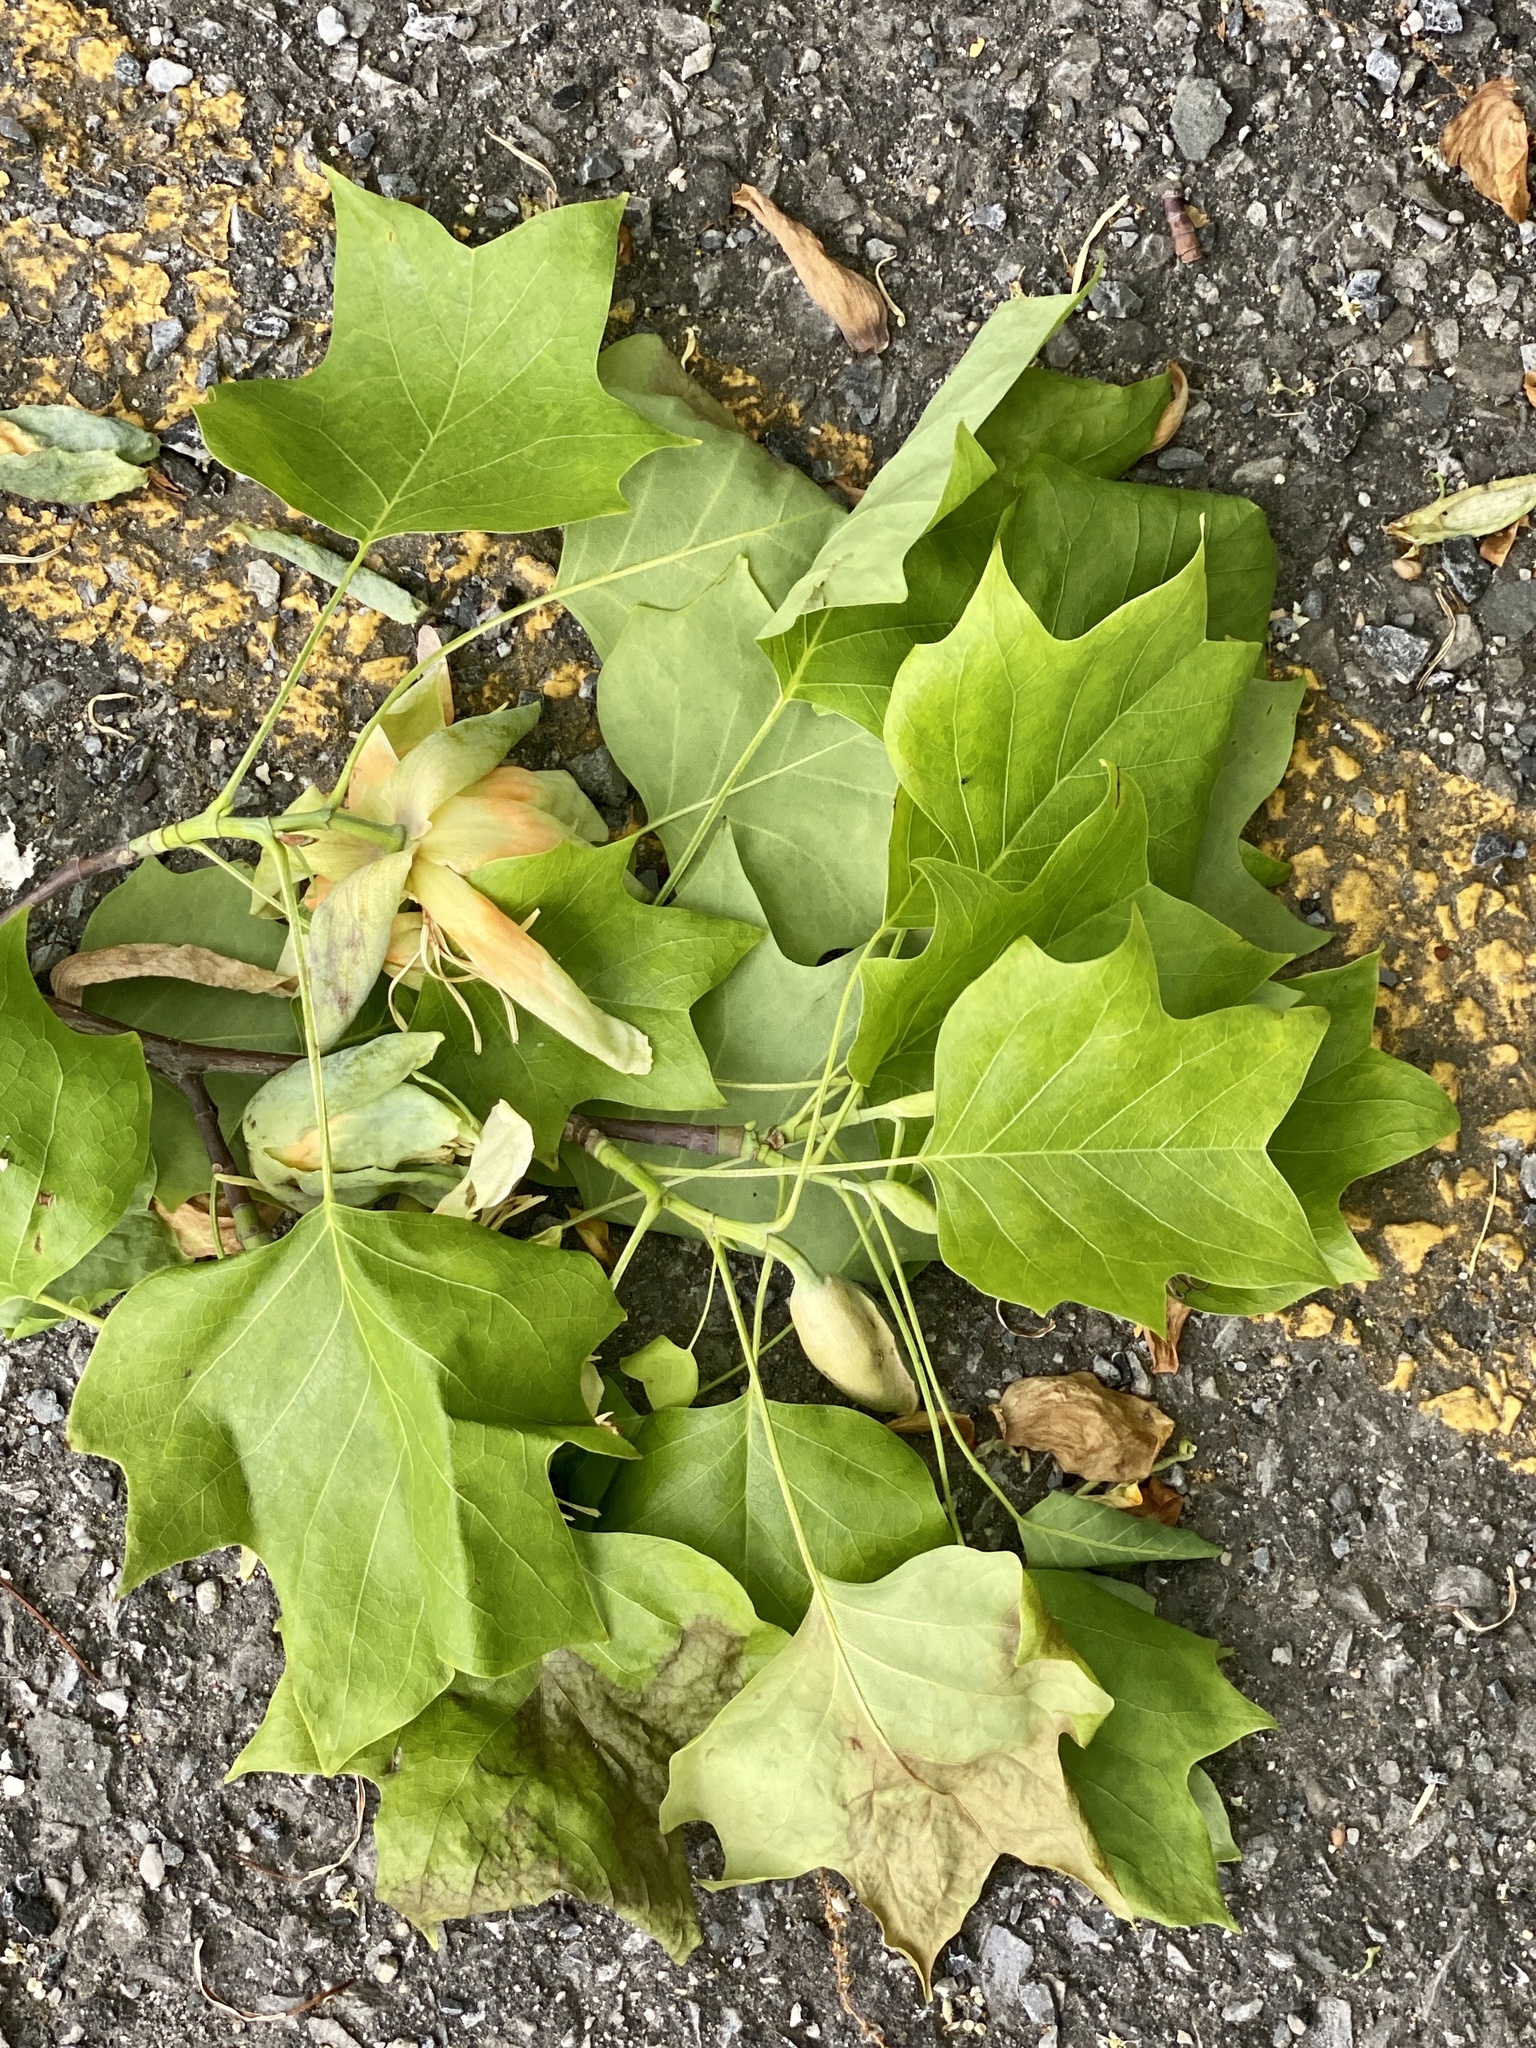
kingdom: Plantae
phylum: Tracheophyta
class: Magnoliopsida
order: Magnoliales
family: Magnoliaceae
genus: Liriodendron
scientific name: Liriodendron tulipifera
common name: Tulip tree
